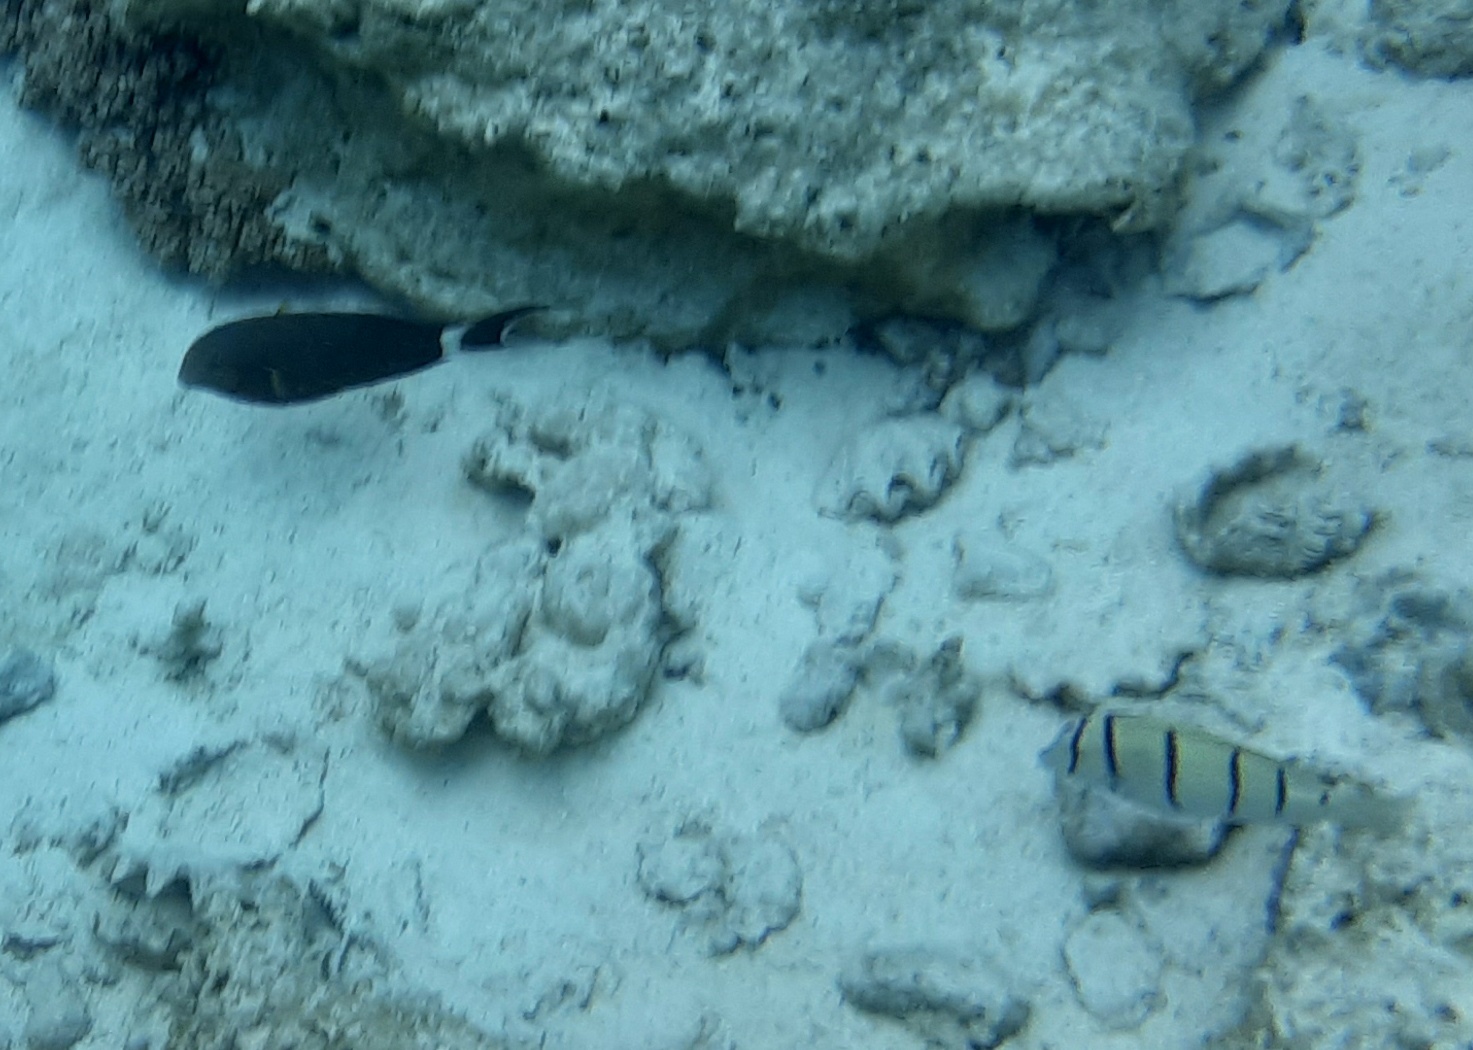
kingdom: Animalia
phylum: Chordata
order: Perciformes
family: Acanthuridae
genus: Acanthurus
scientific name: Acanthurus triostegus
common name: Convict surgeonfish
